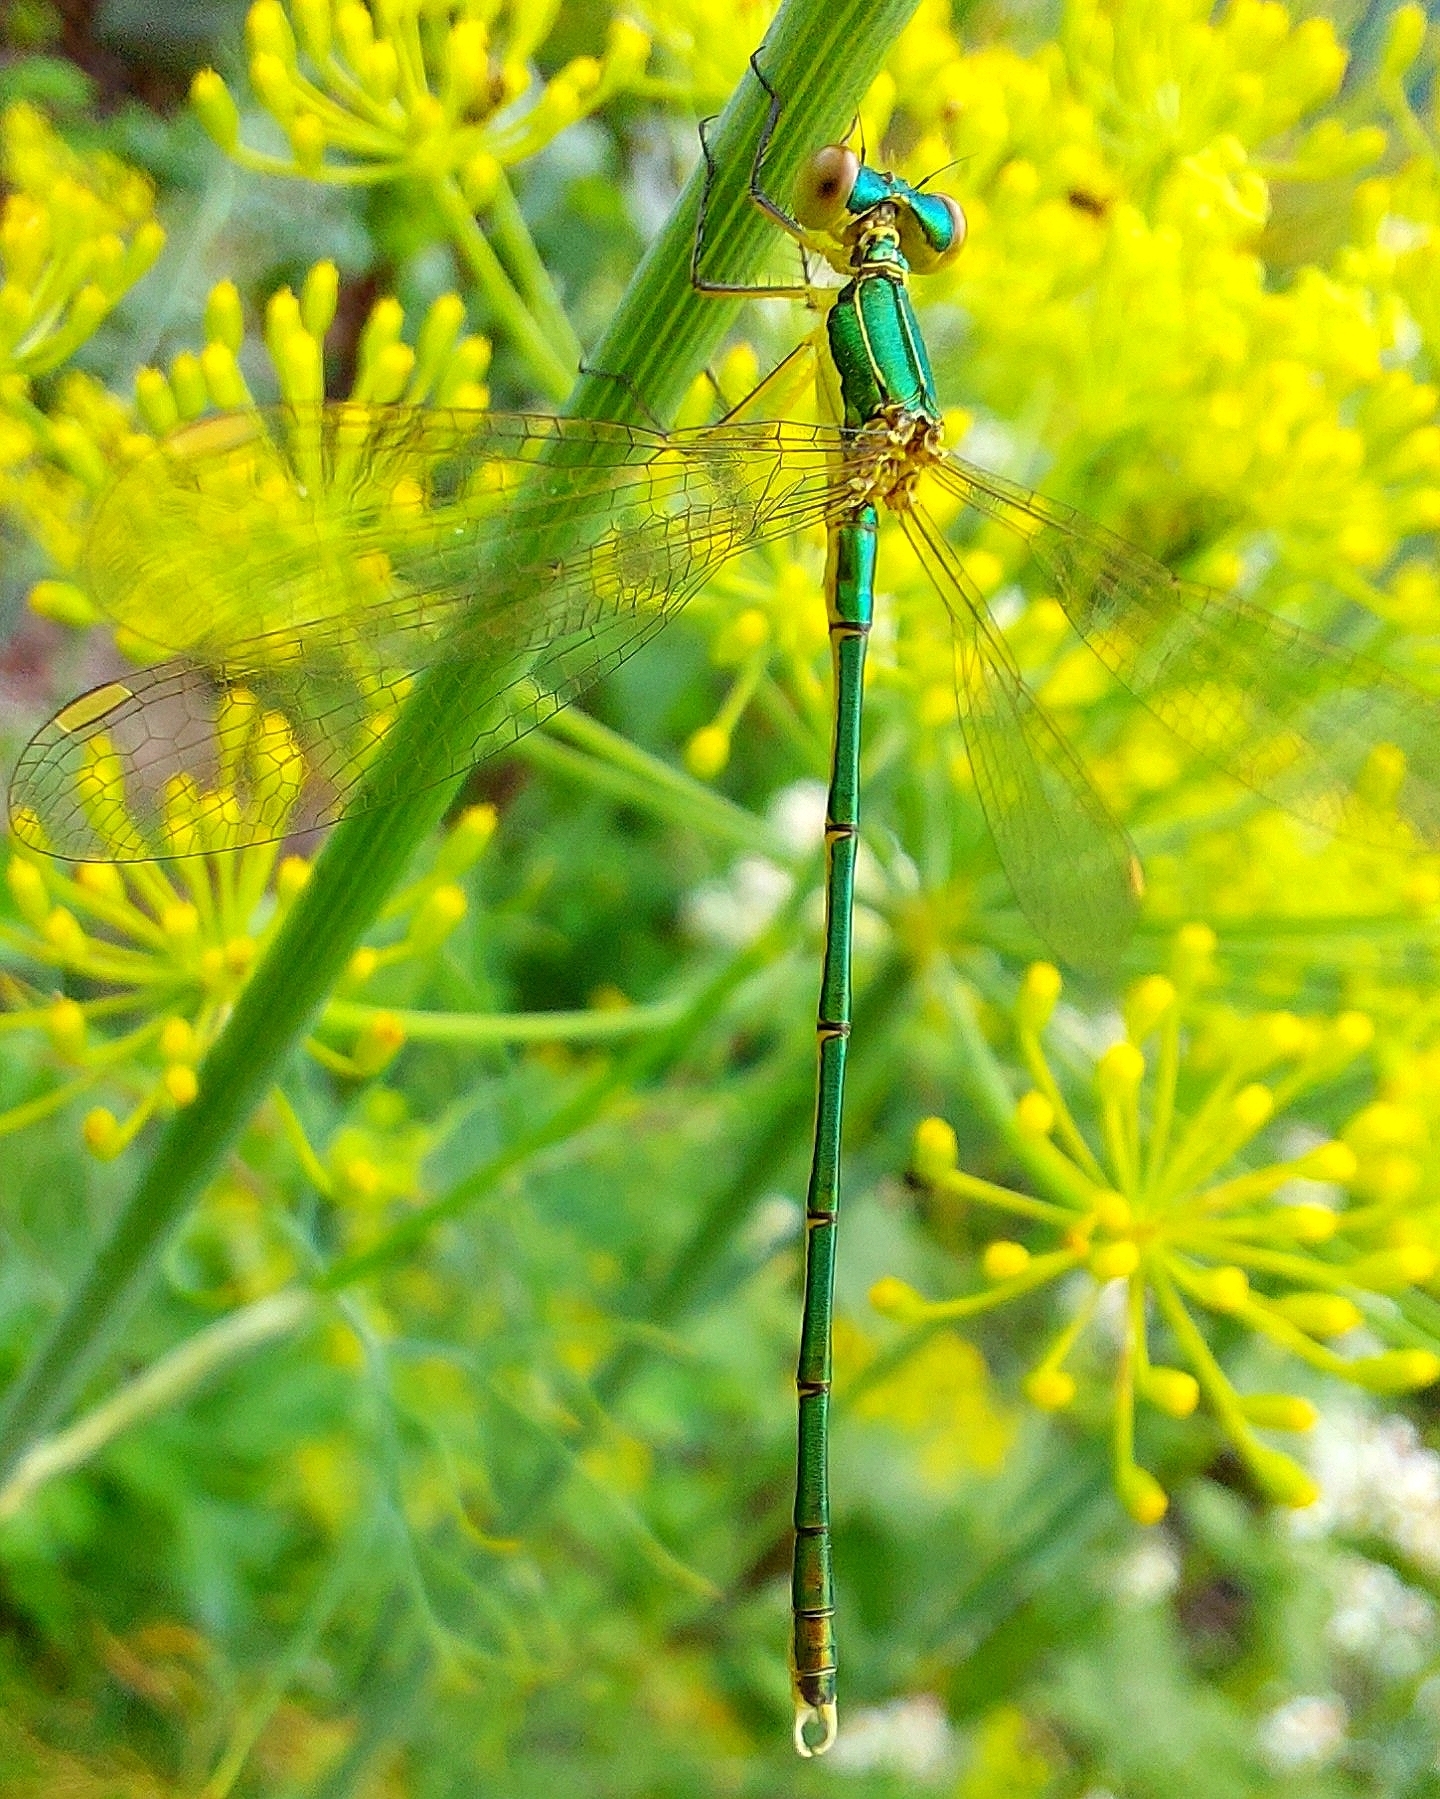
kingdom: Animalia
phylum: Arthropoda
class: Insecta
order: Odonata
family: Lestidae
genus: Lestes
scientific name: Lestes virens
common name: Small emerald spreadwing
